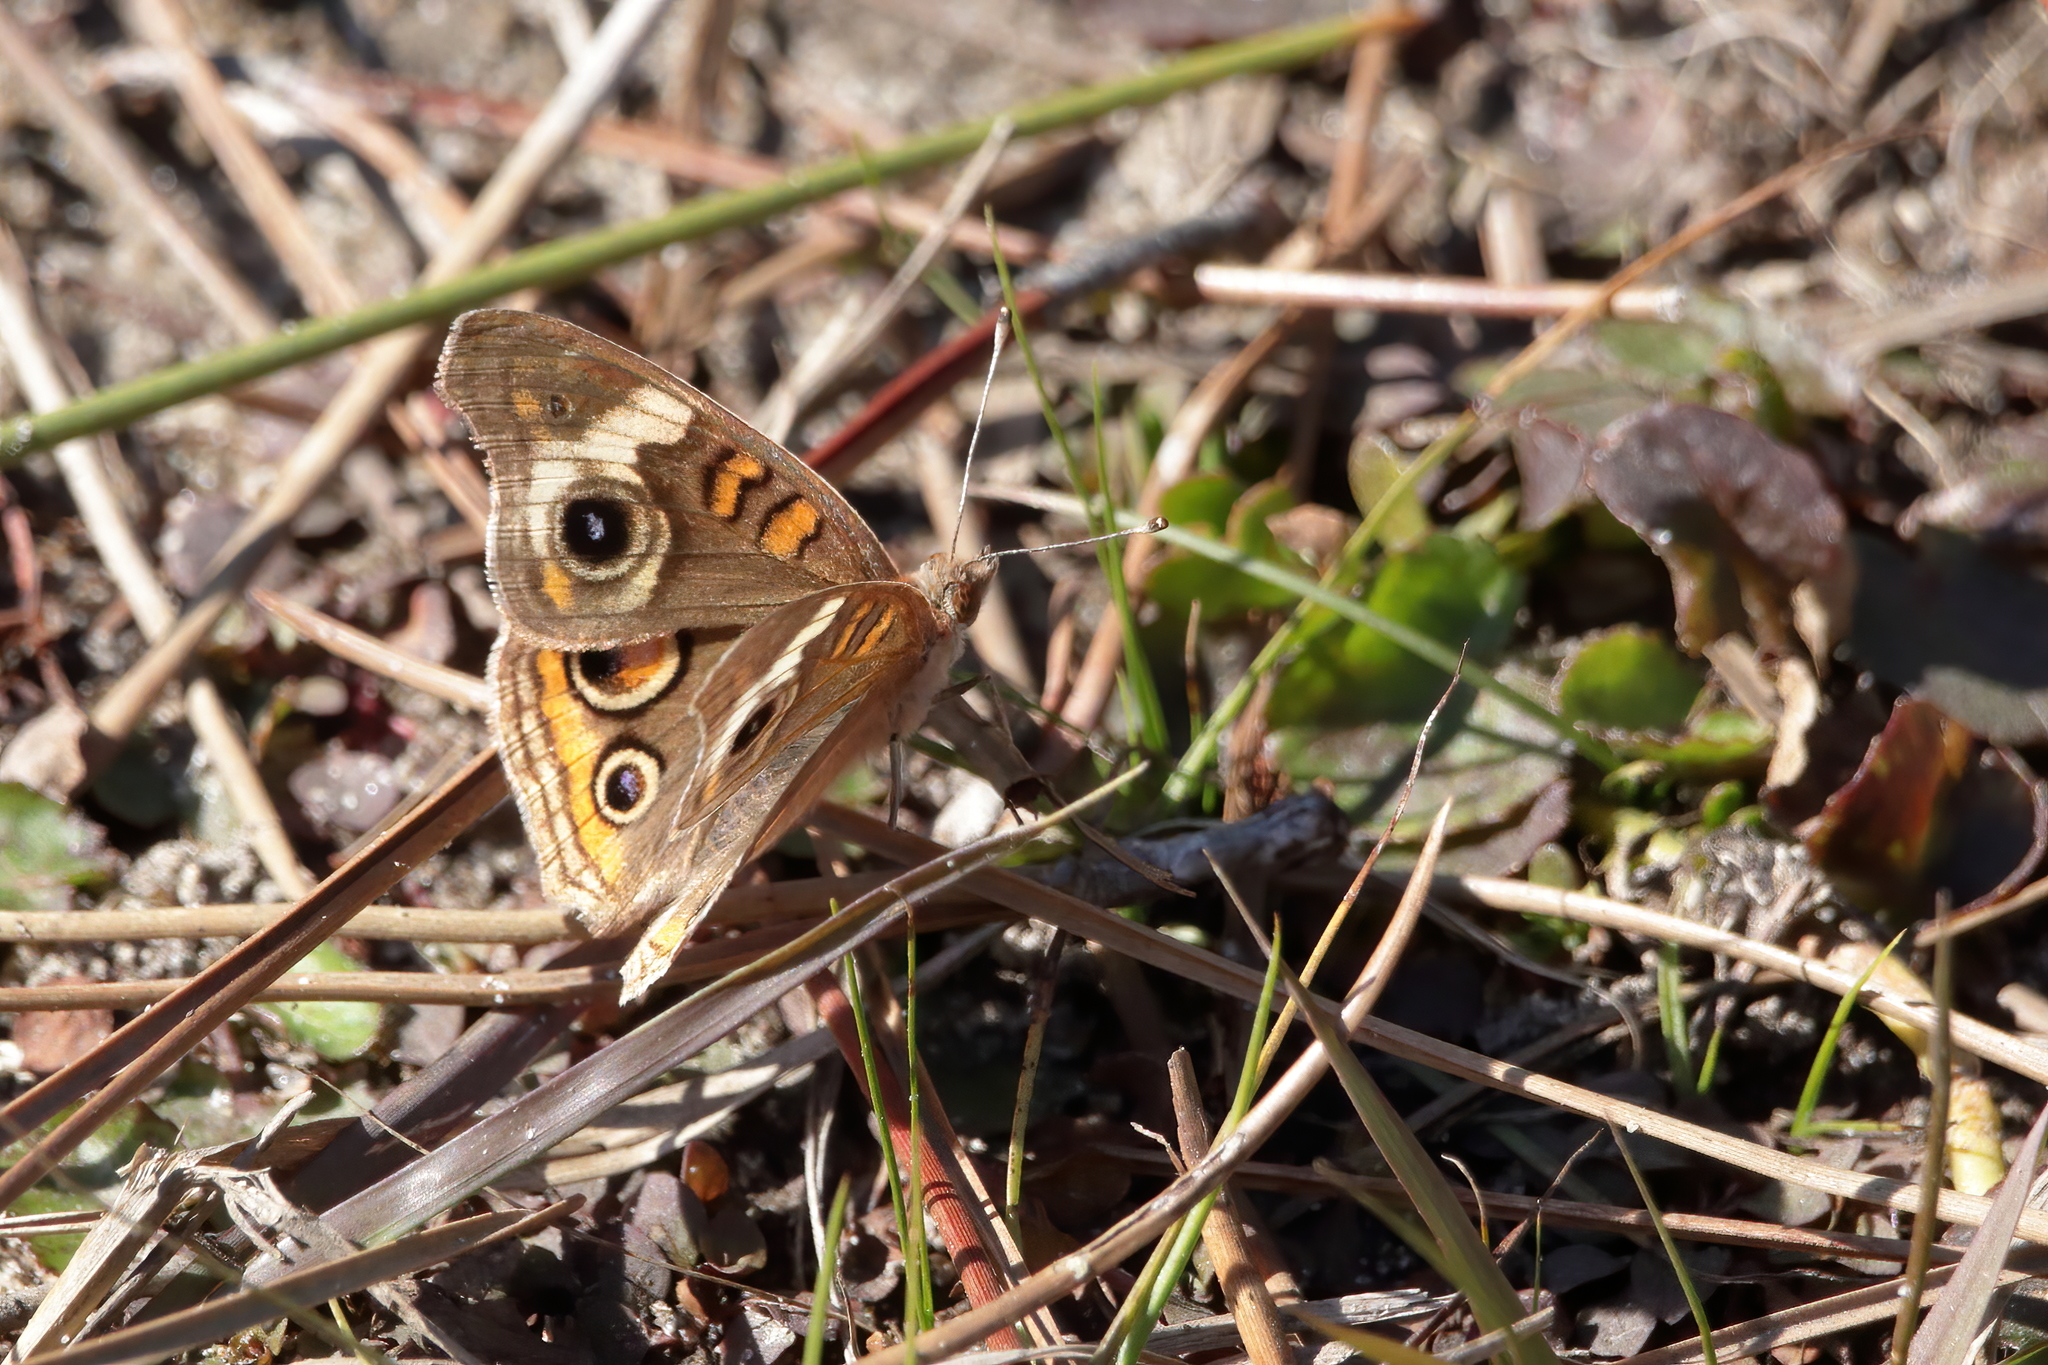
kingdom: Animalia
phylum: Arthropoda
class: Insecta
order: Lepidoptera
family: Nymphalidae
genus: Junonia
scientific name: Junonia coenia
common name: Common buckeye
